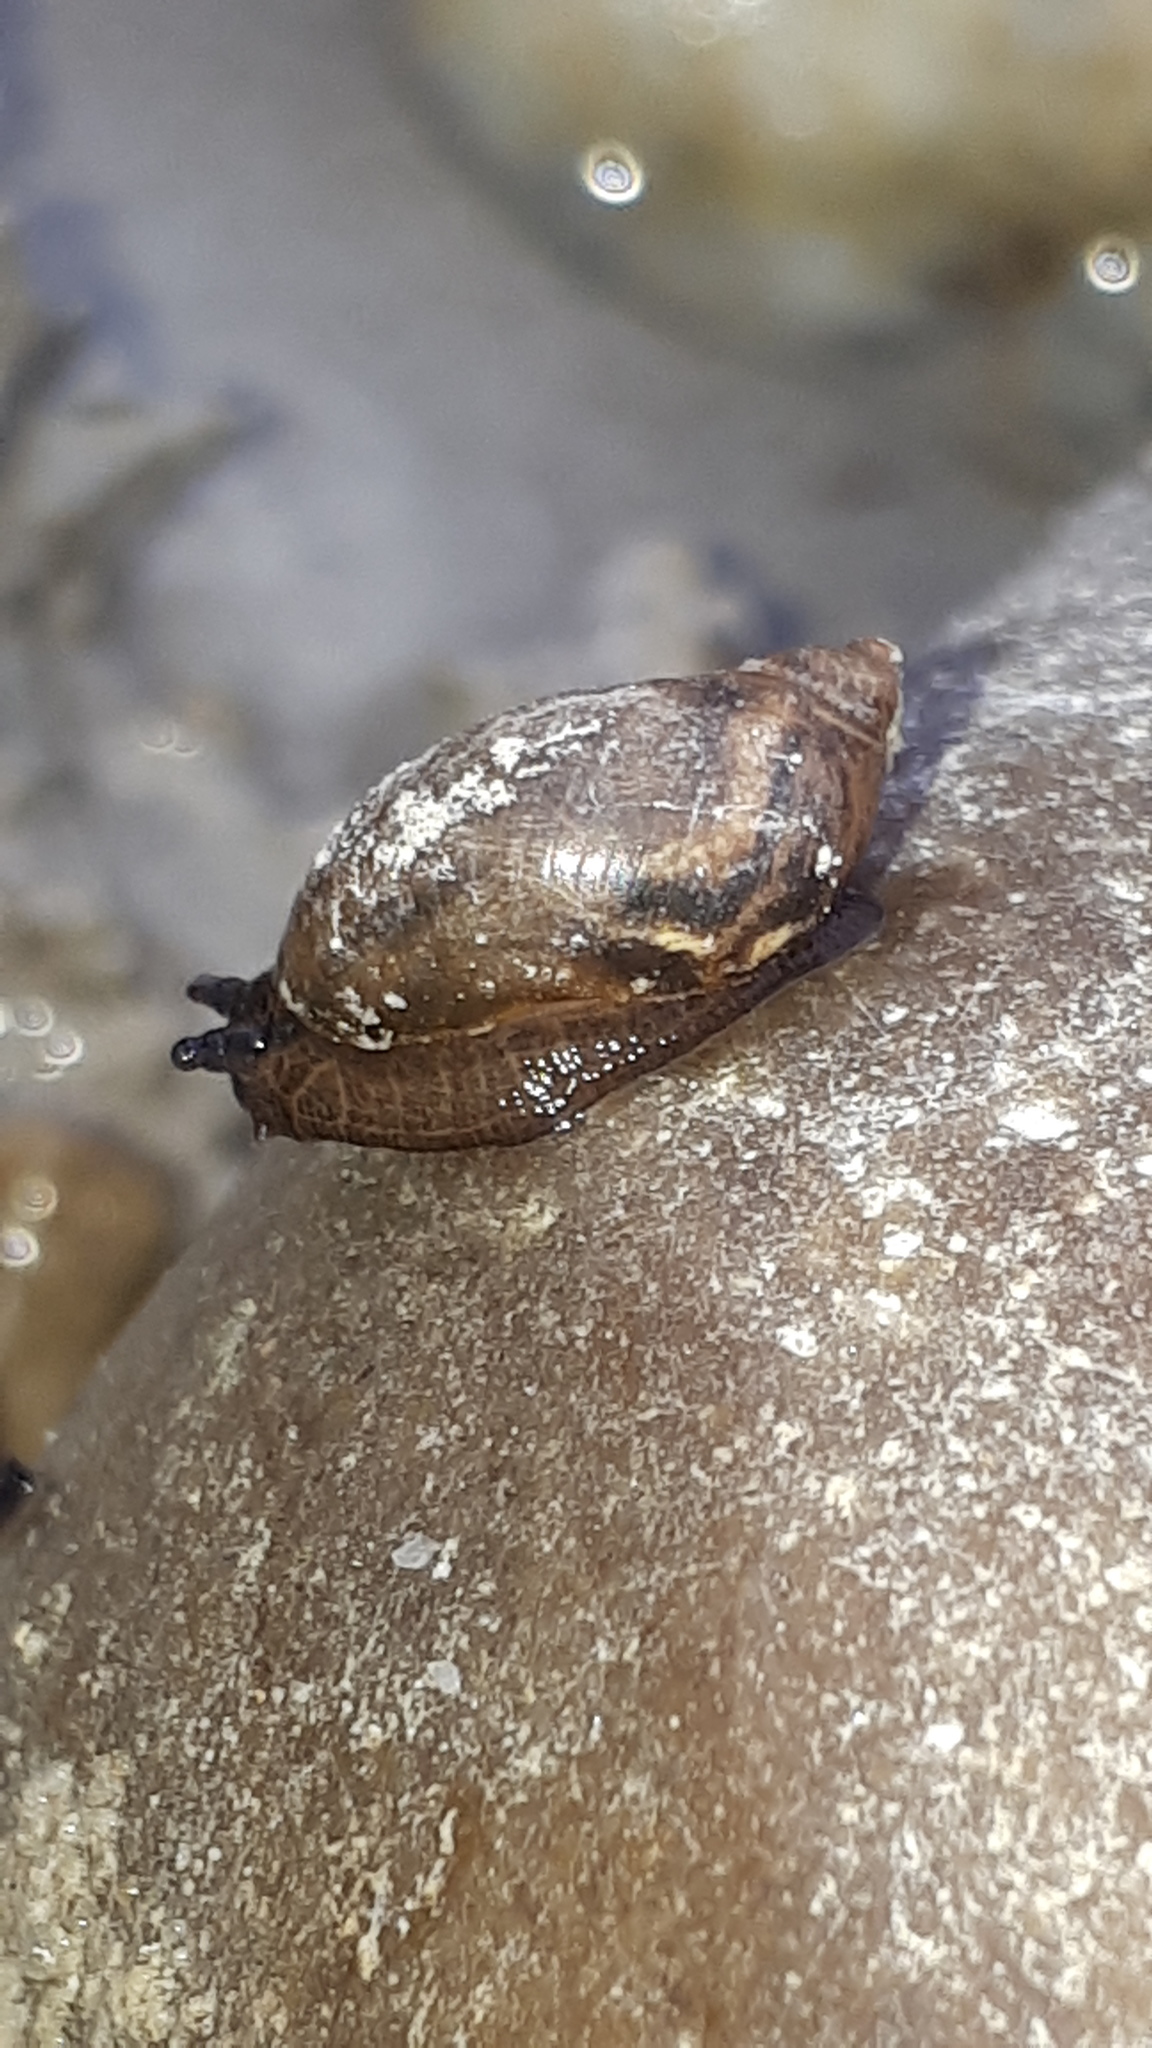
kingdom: Animalia
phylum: Mollusca
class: Gastropoda
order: Stylommatophora
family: Succineidae
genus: Succinea
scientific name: Succinea putris
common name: European ambersnail
